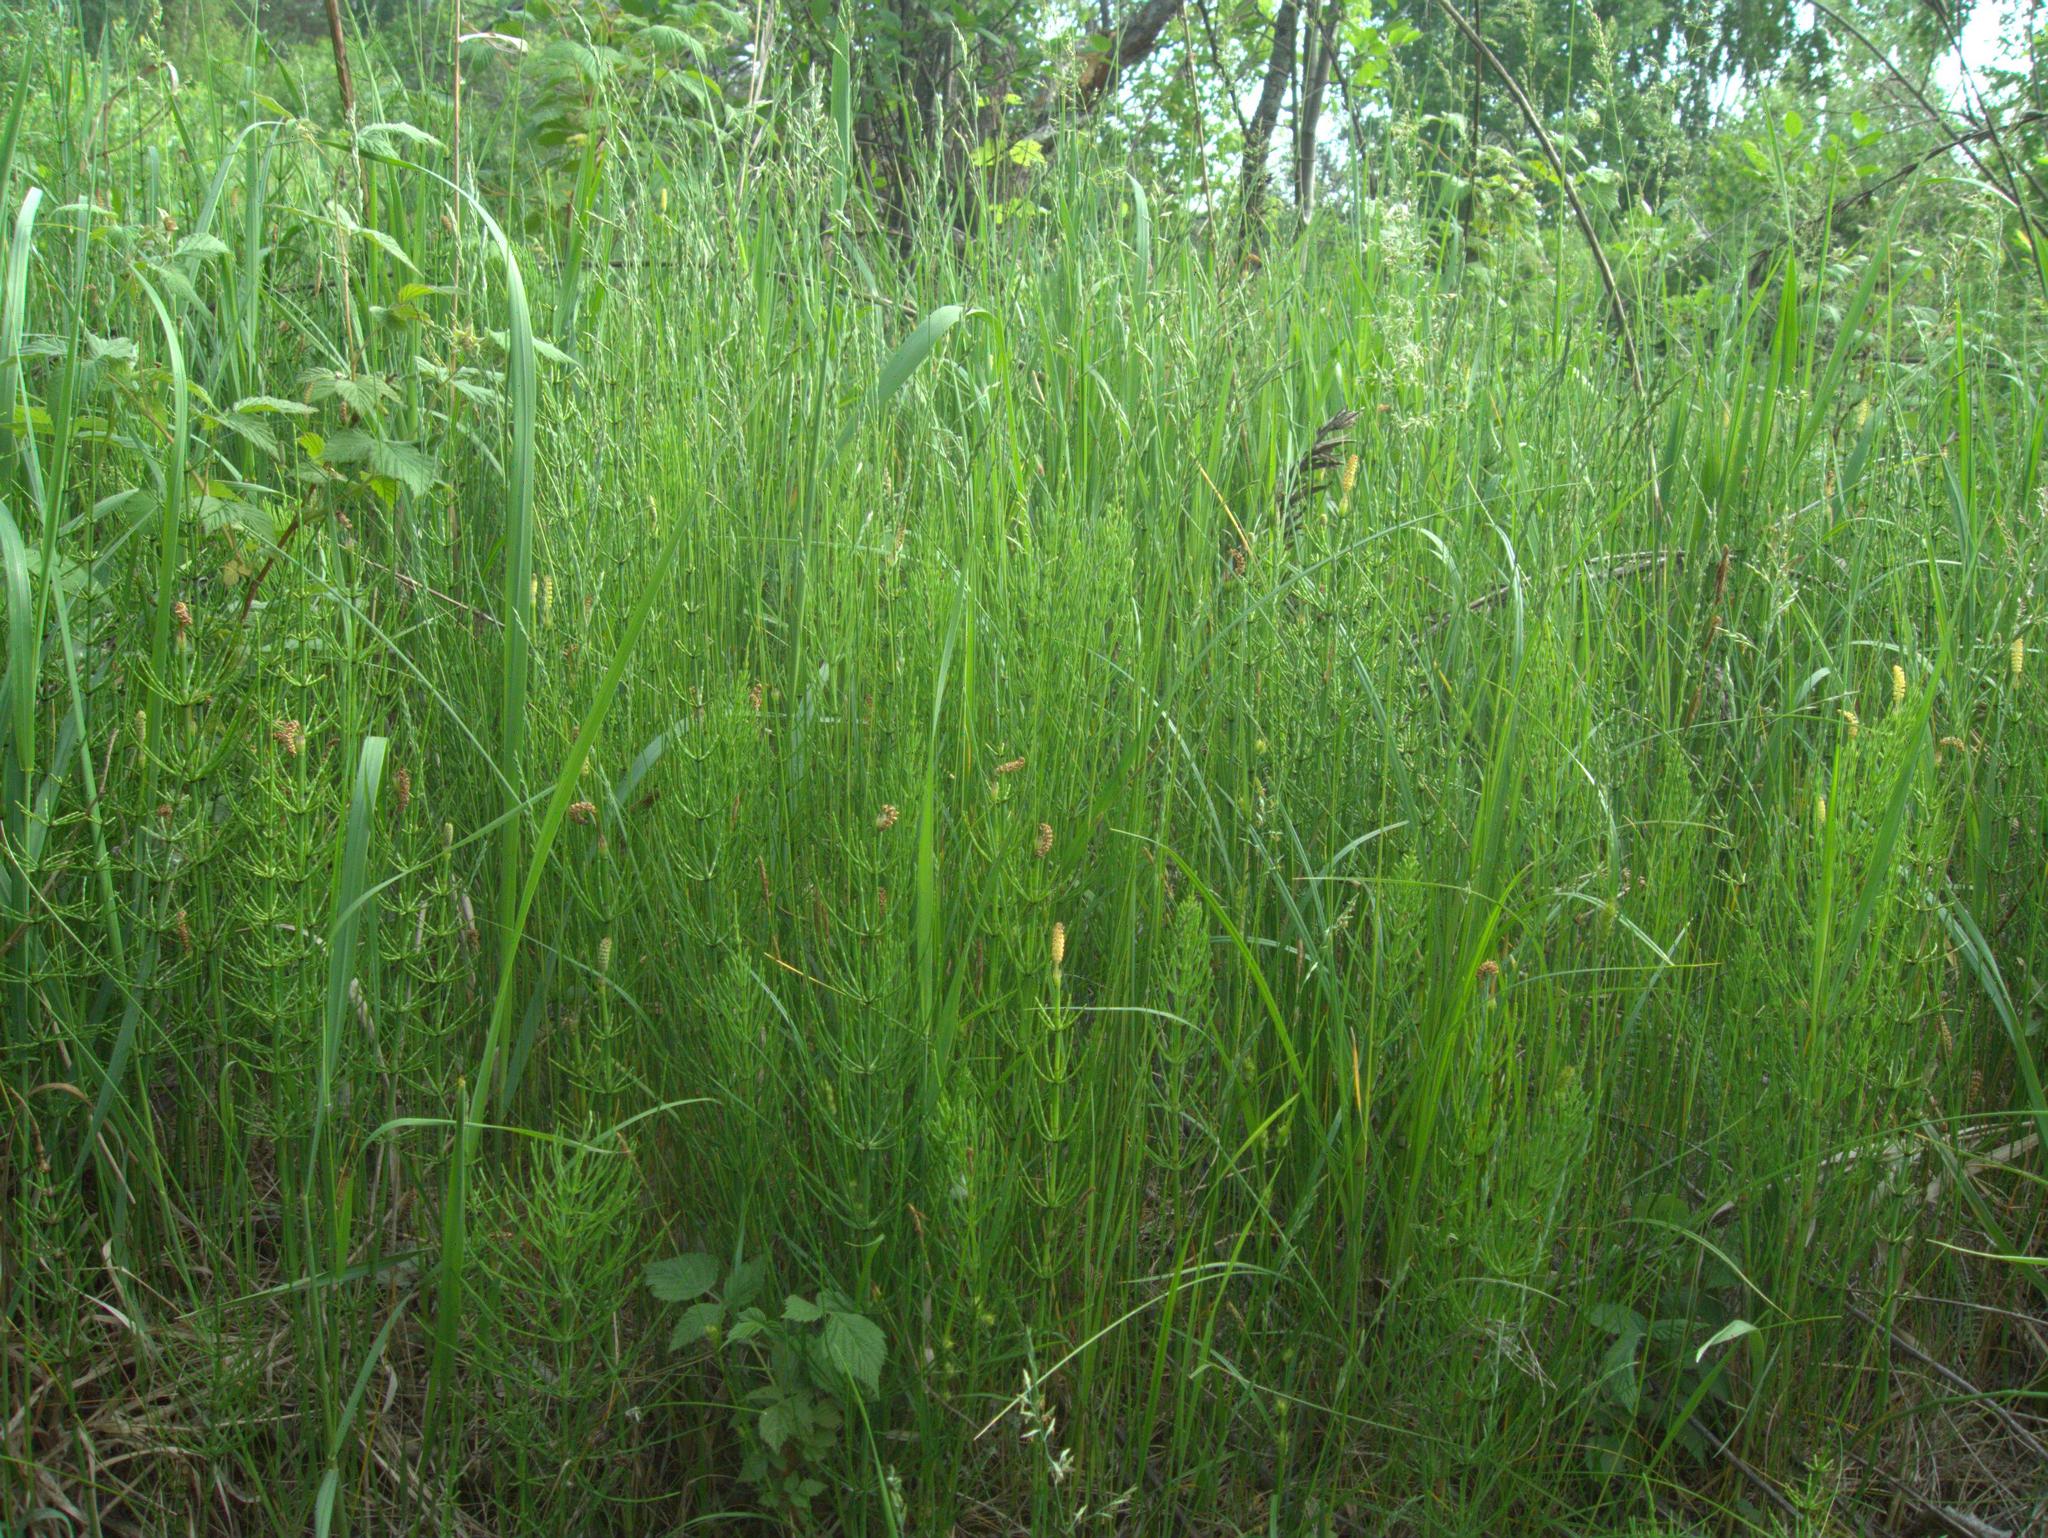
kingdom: Plantae
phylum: Tracheophyta
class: Polypodiopsida
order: Equisetales
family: Equisetaceae
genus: Equisetum
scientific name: Equisetum palustre
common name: Marsh horsetail
